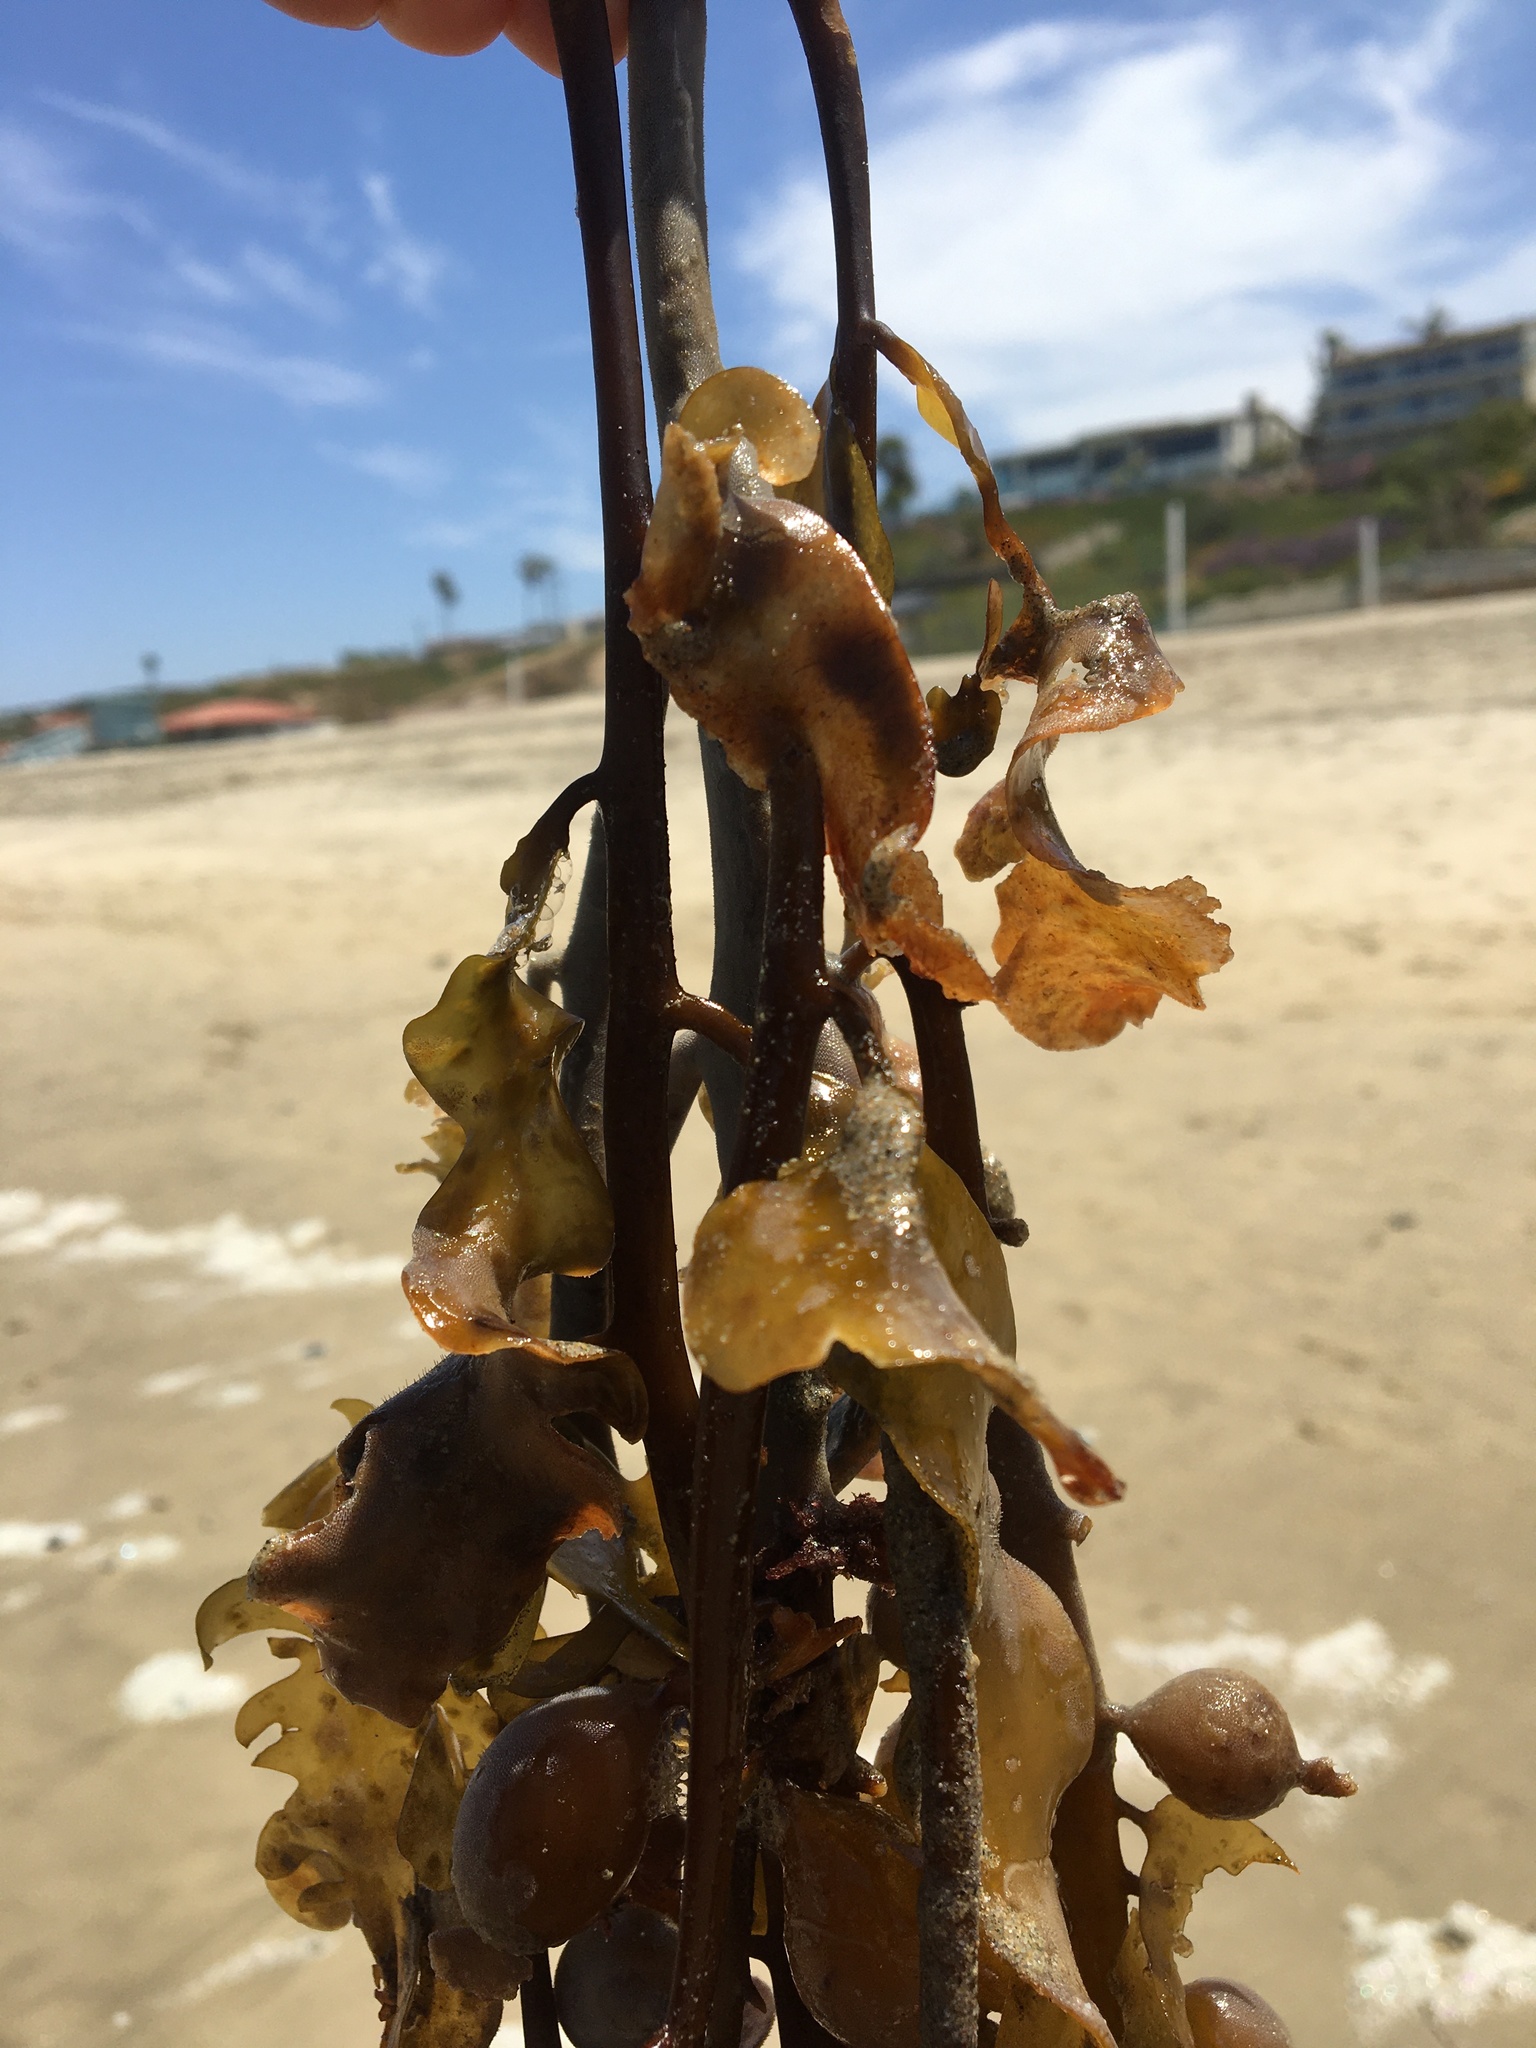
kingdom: Chromista
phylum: Ochrophyta
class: Phaeophyceae
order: Laminariales
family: Lessoniaceae
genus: Egregia
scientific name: Egregia menziesii
